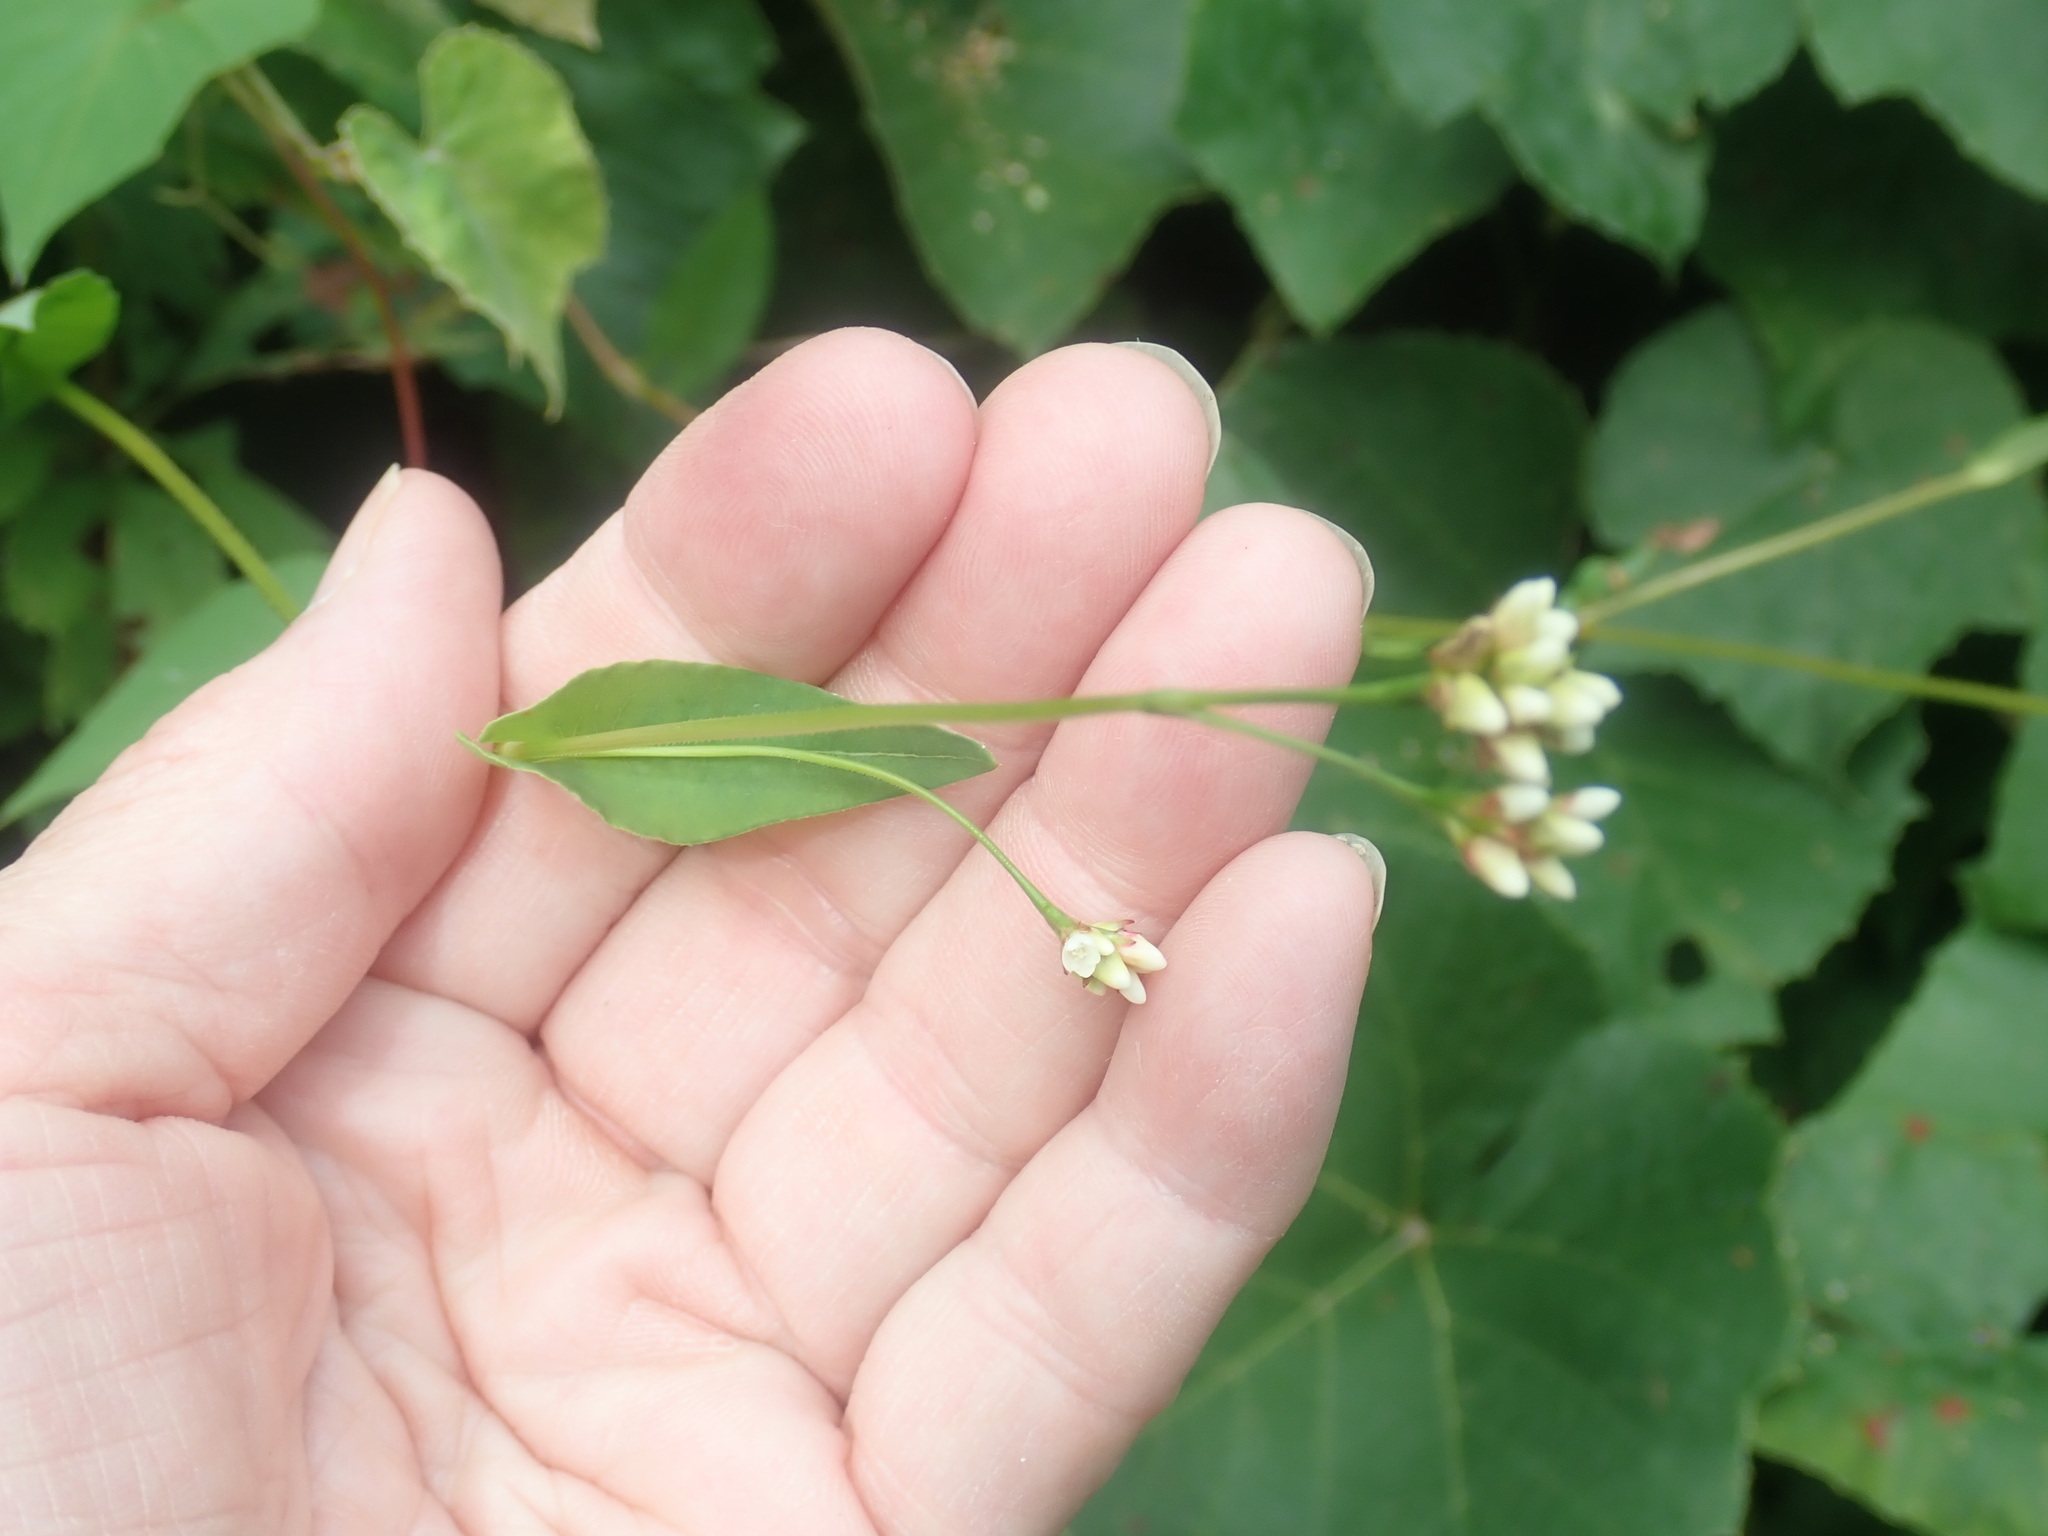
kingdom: Plantae
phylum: Tracheophyta
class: Magnoliopsida
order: Caryophyllales
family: Polygonaceae
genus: Persicaria
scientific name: Persicaria sagittata
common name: American tearthumb
